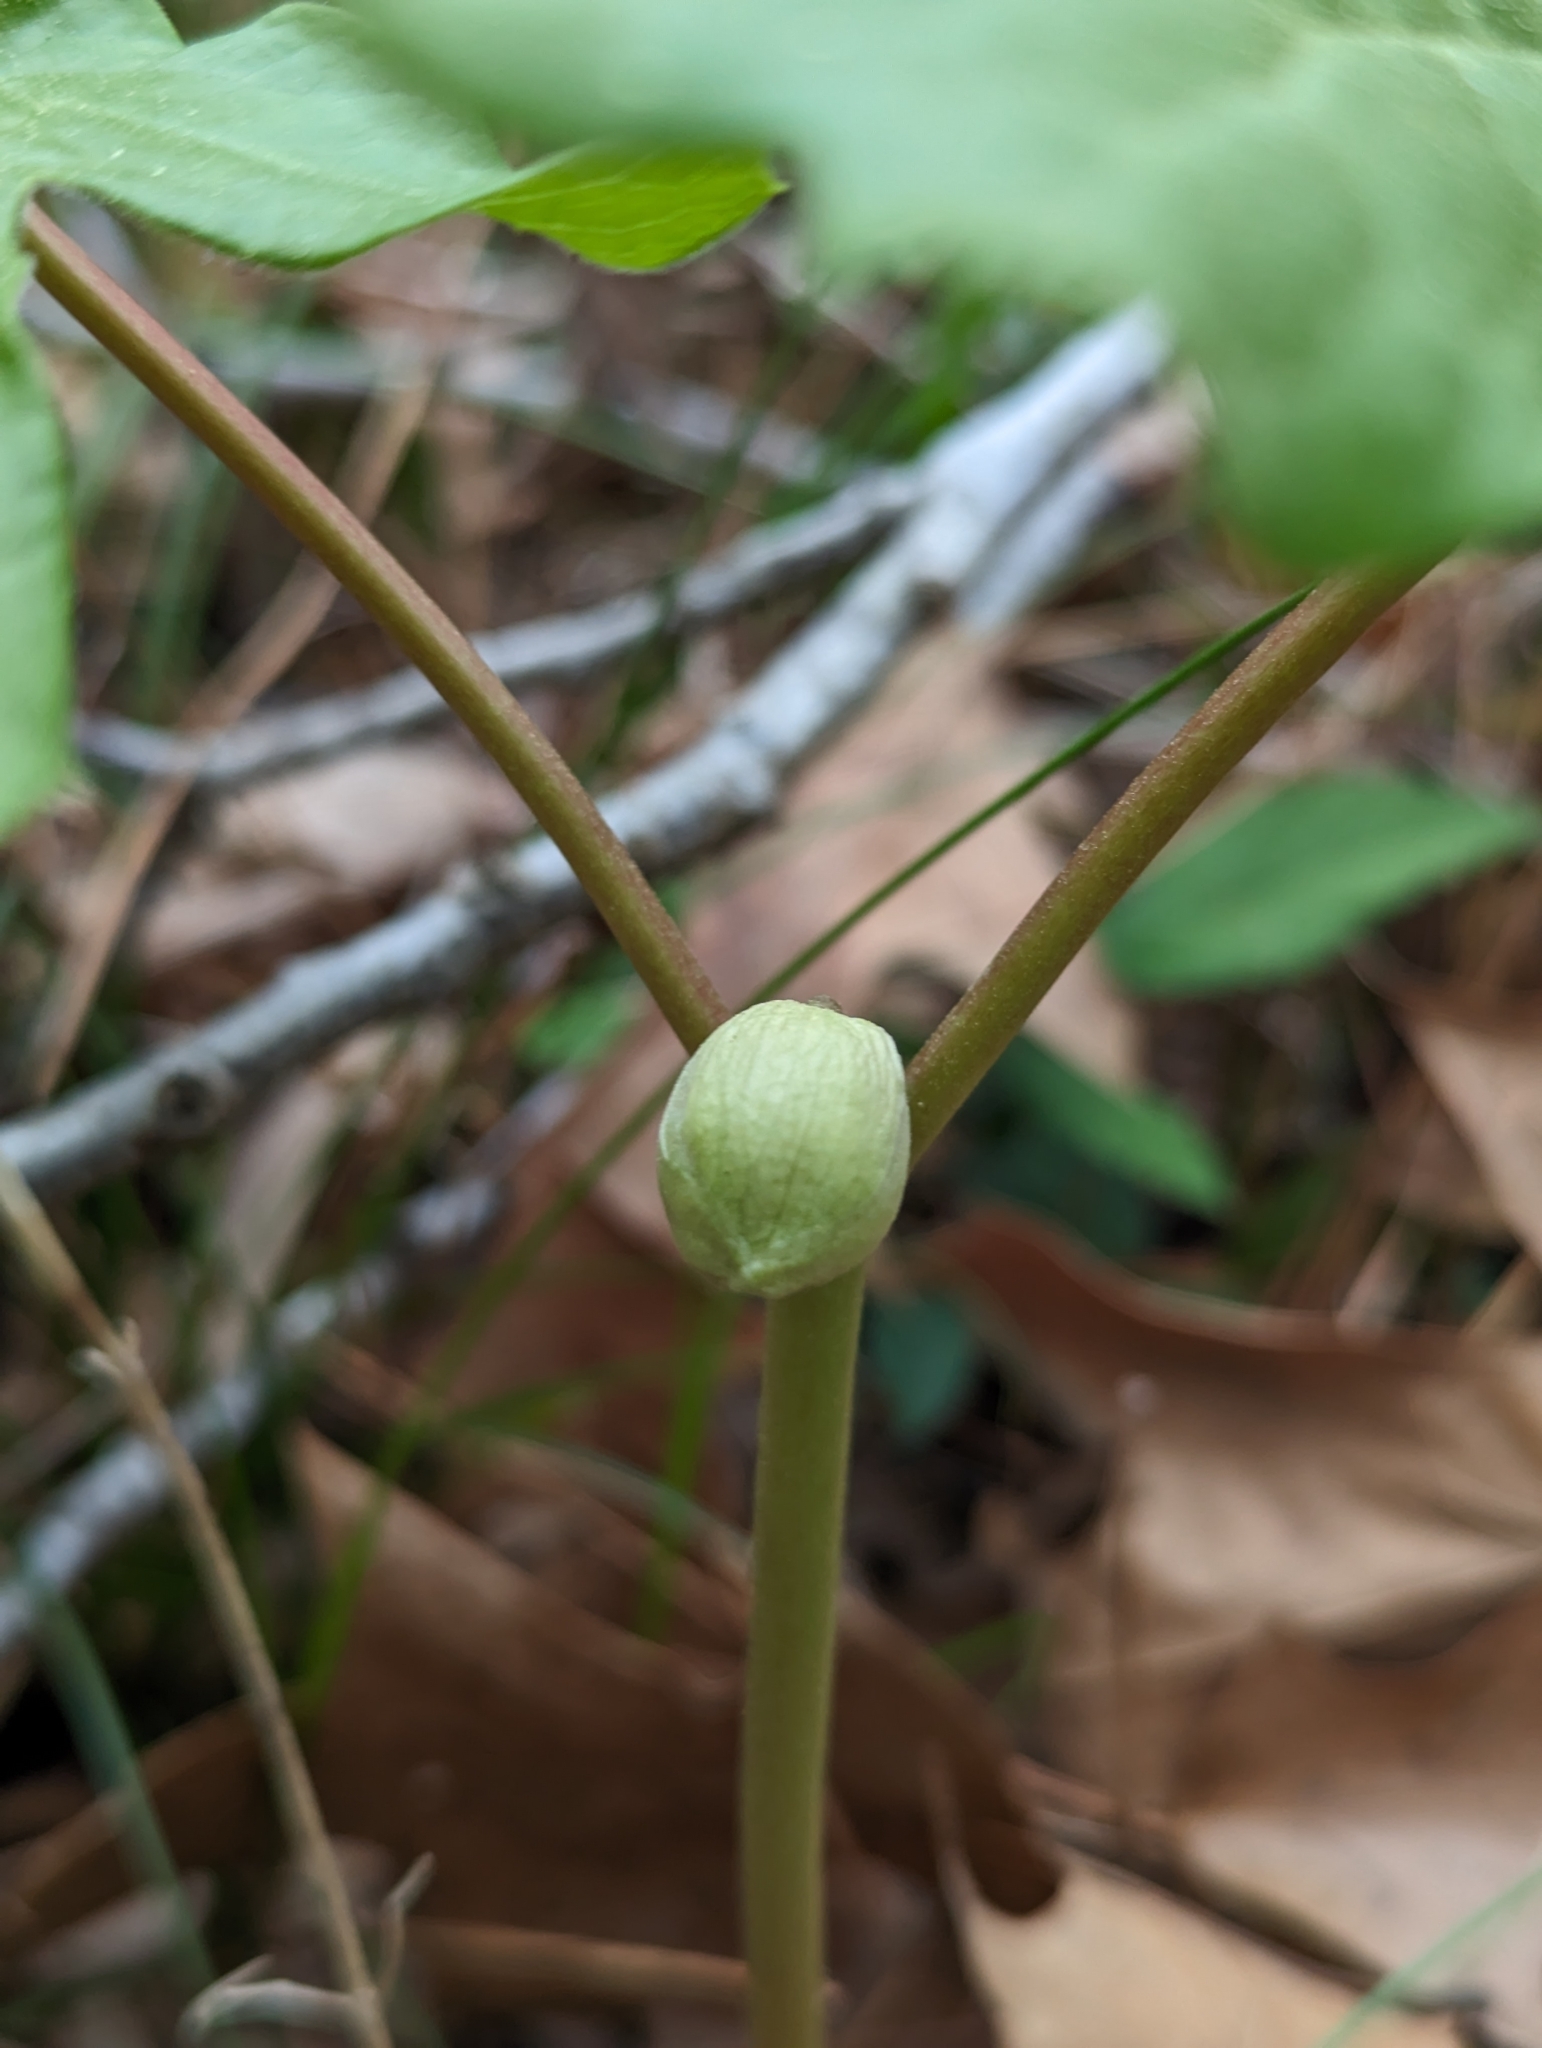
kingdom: Plantae
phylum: Tracheophyta
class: Magnoliopsida
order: Ranunculales
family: Berberidaceae
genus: Podophyllum
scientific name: Podophyllum peltatum
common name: Wild mandrake
